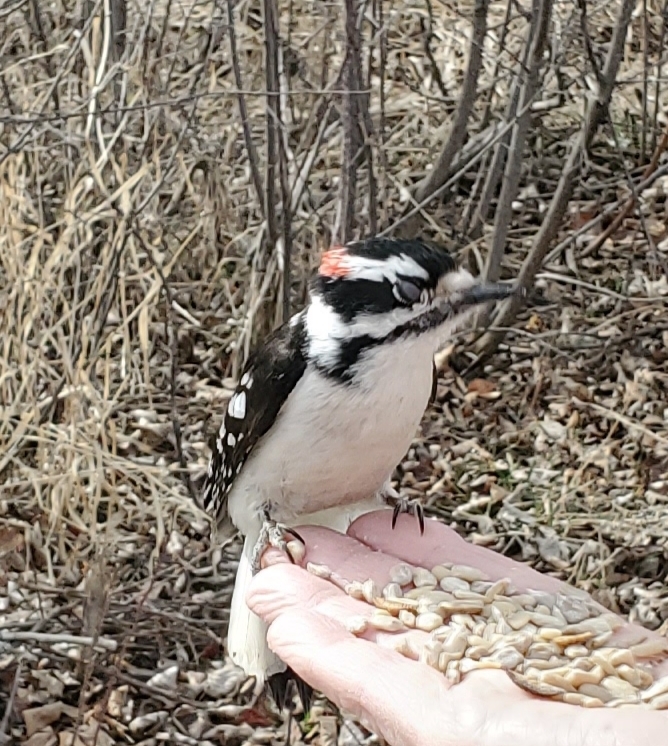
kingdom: Animalia
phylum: Chordata
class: Aves
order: Piciformes
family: Picidae
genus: Dryobates
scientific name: Dryobates pubescens
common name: Downy woodpecker
